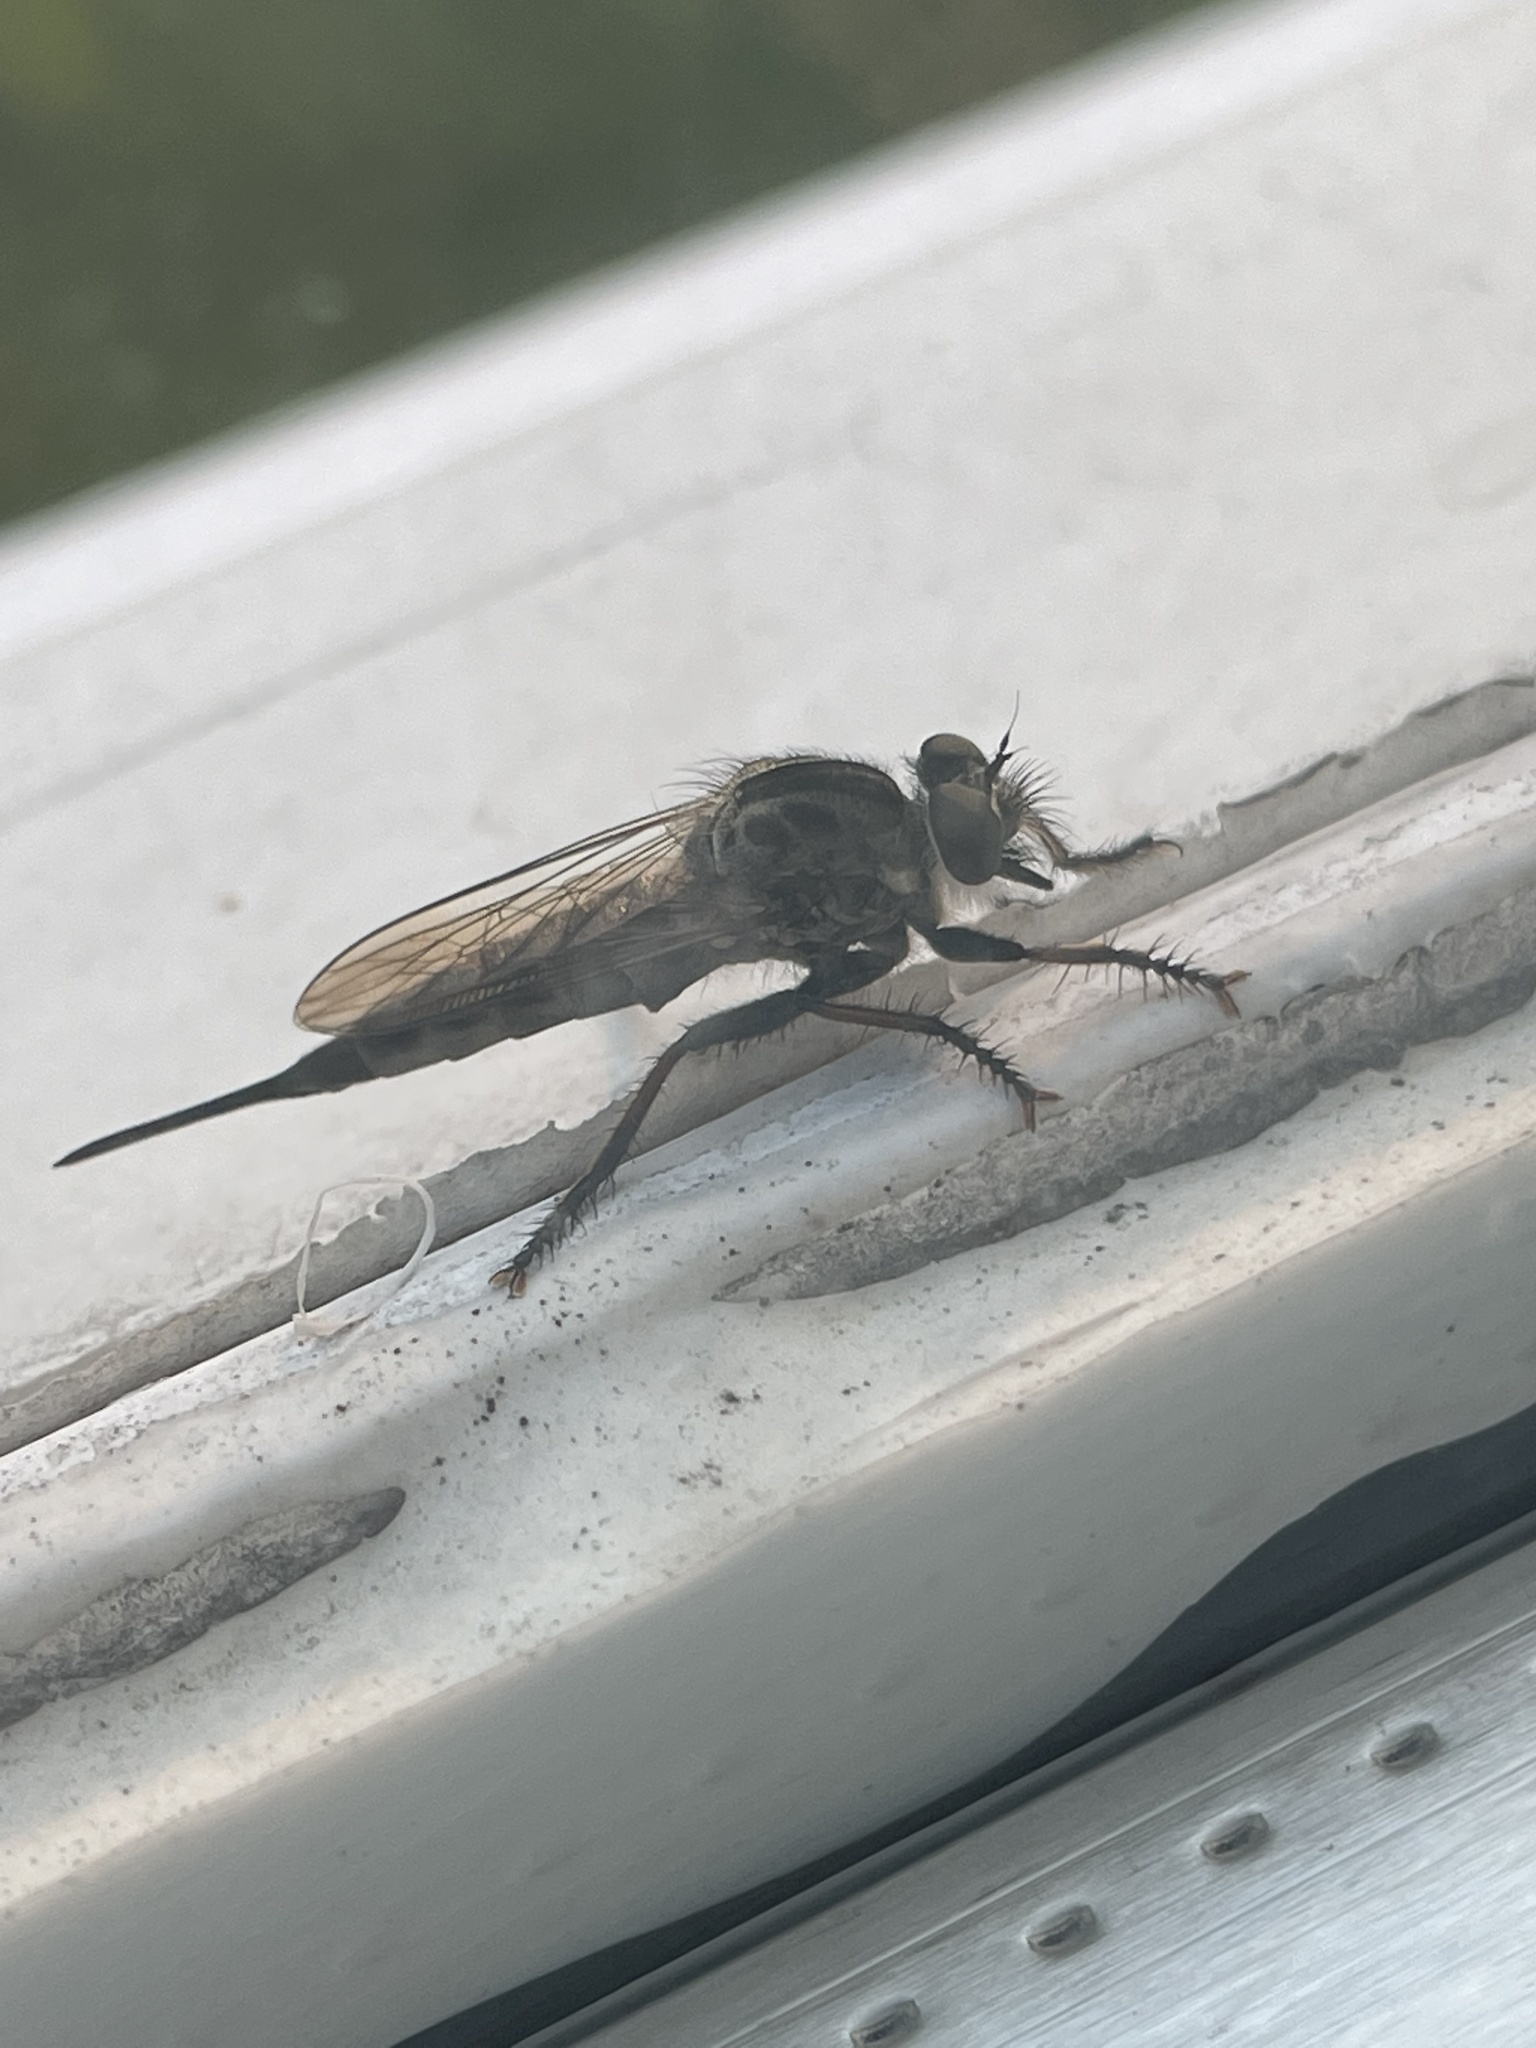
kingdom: Animalia
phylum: Arthropoda
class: Insecta
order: Diptera
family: Asilidae
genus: Efferia
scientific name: Efferia aestuans
